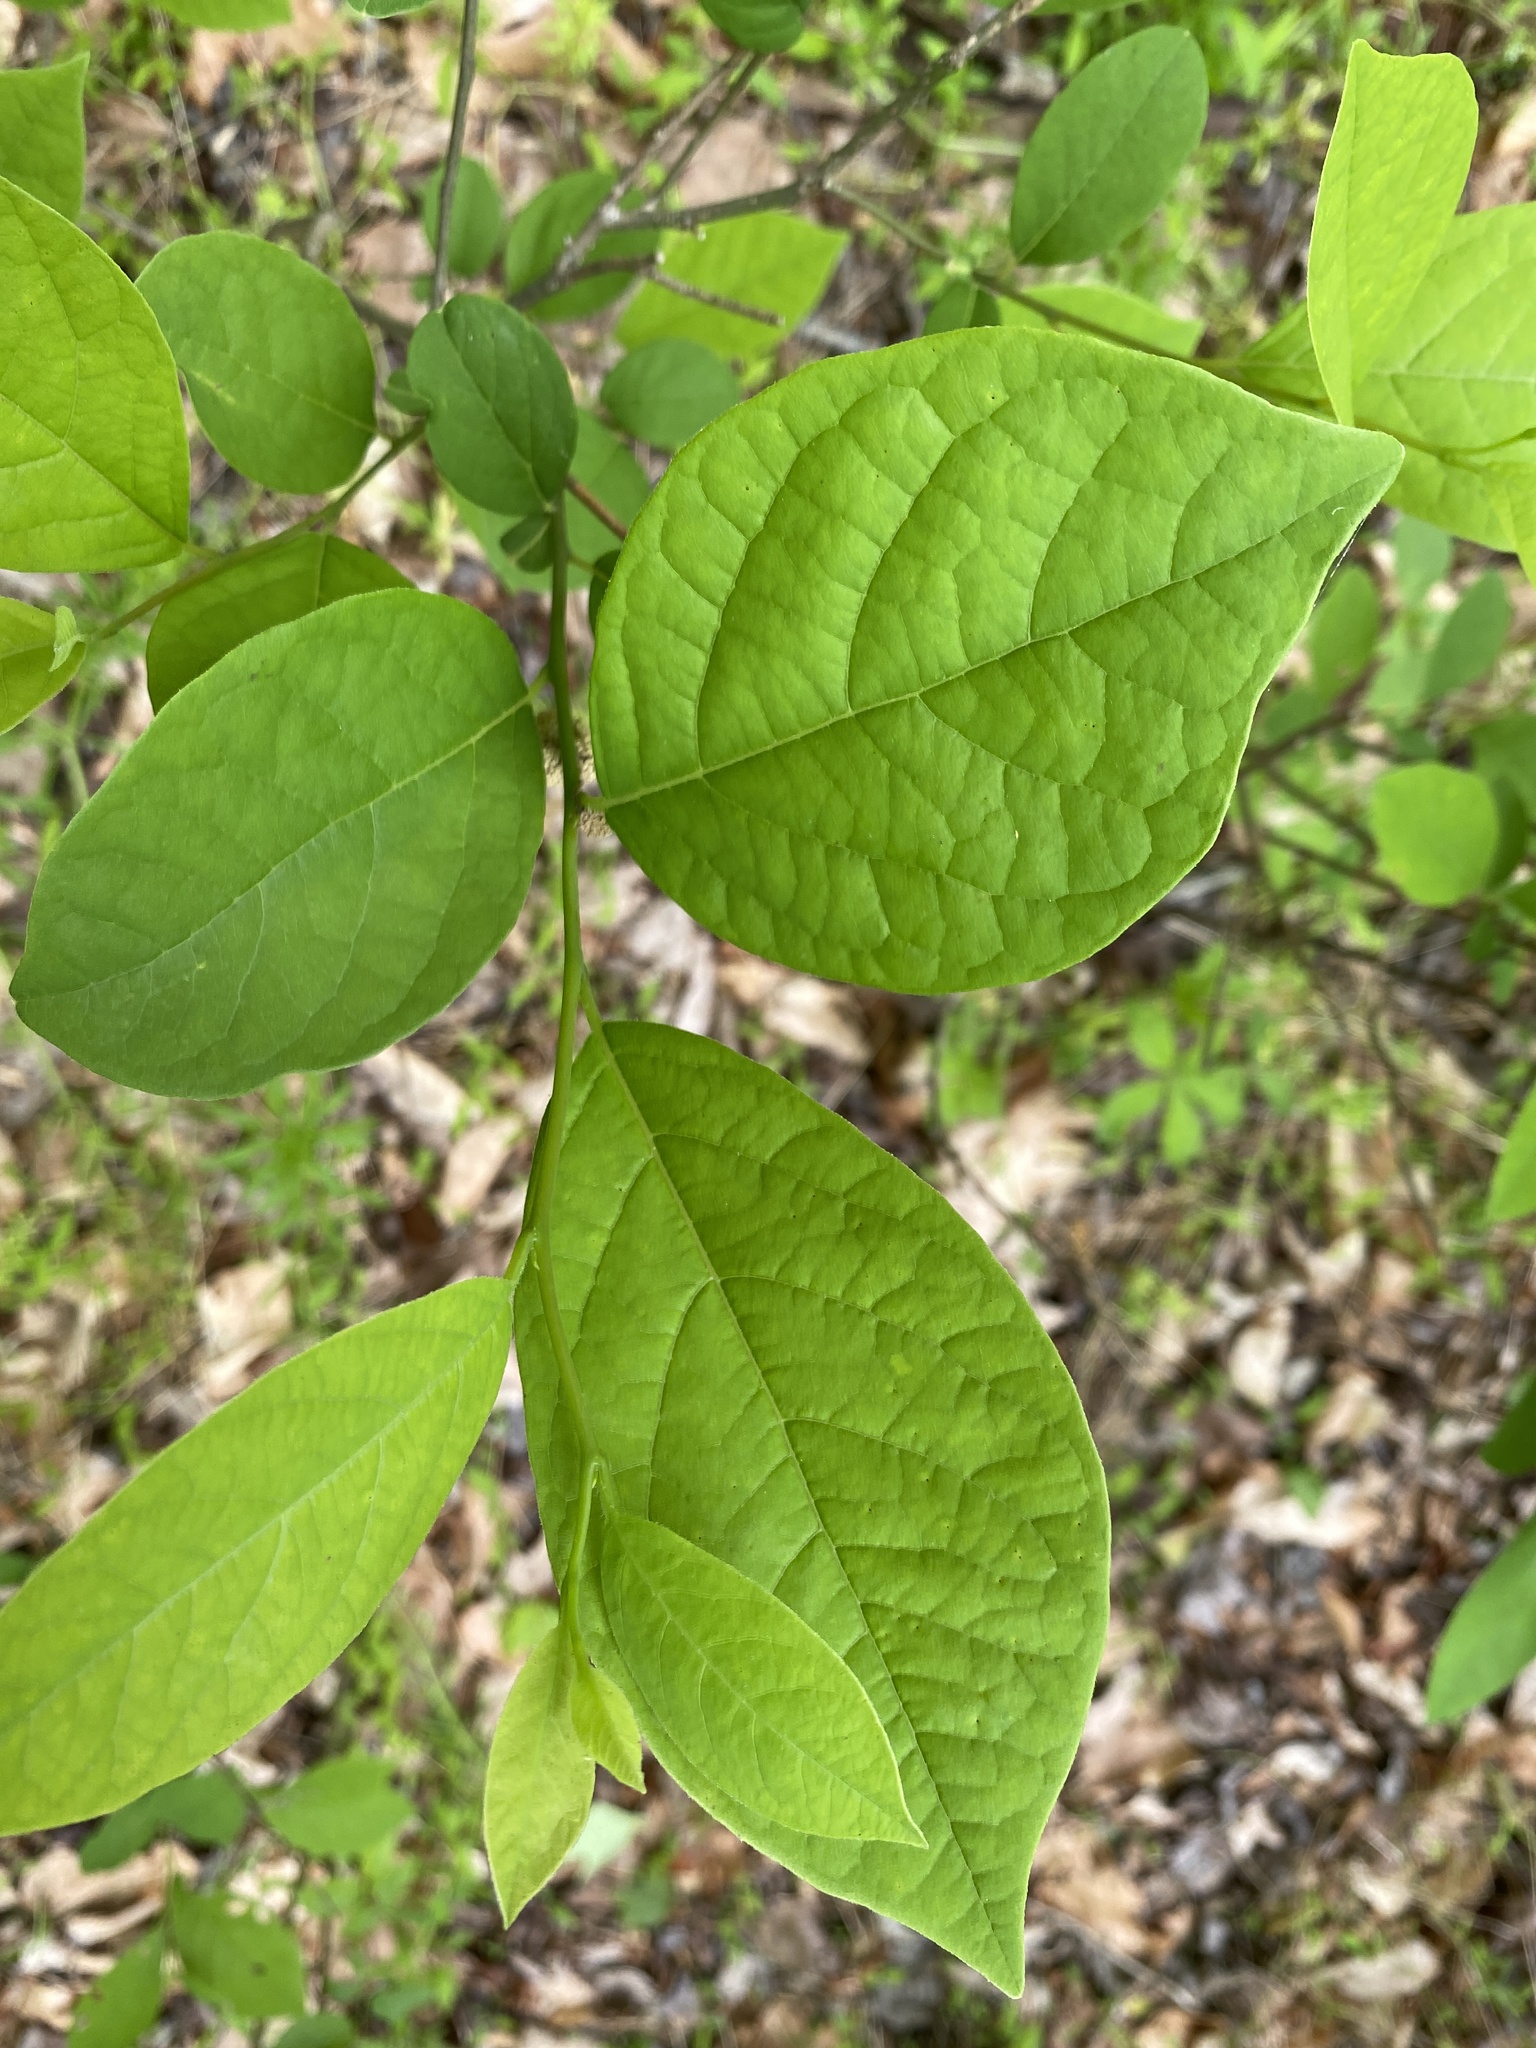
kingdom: Plantae
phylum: Tracheophyta
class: Magnoliopsida
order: Laurales
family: Lauraceae
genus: Lindera
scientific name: Lindera benzoin
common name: Spicebush
